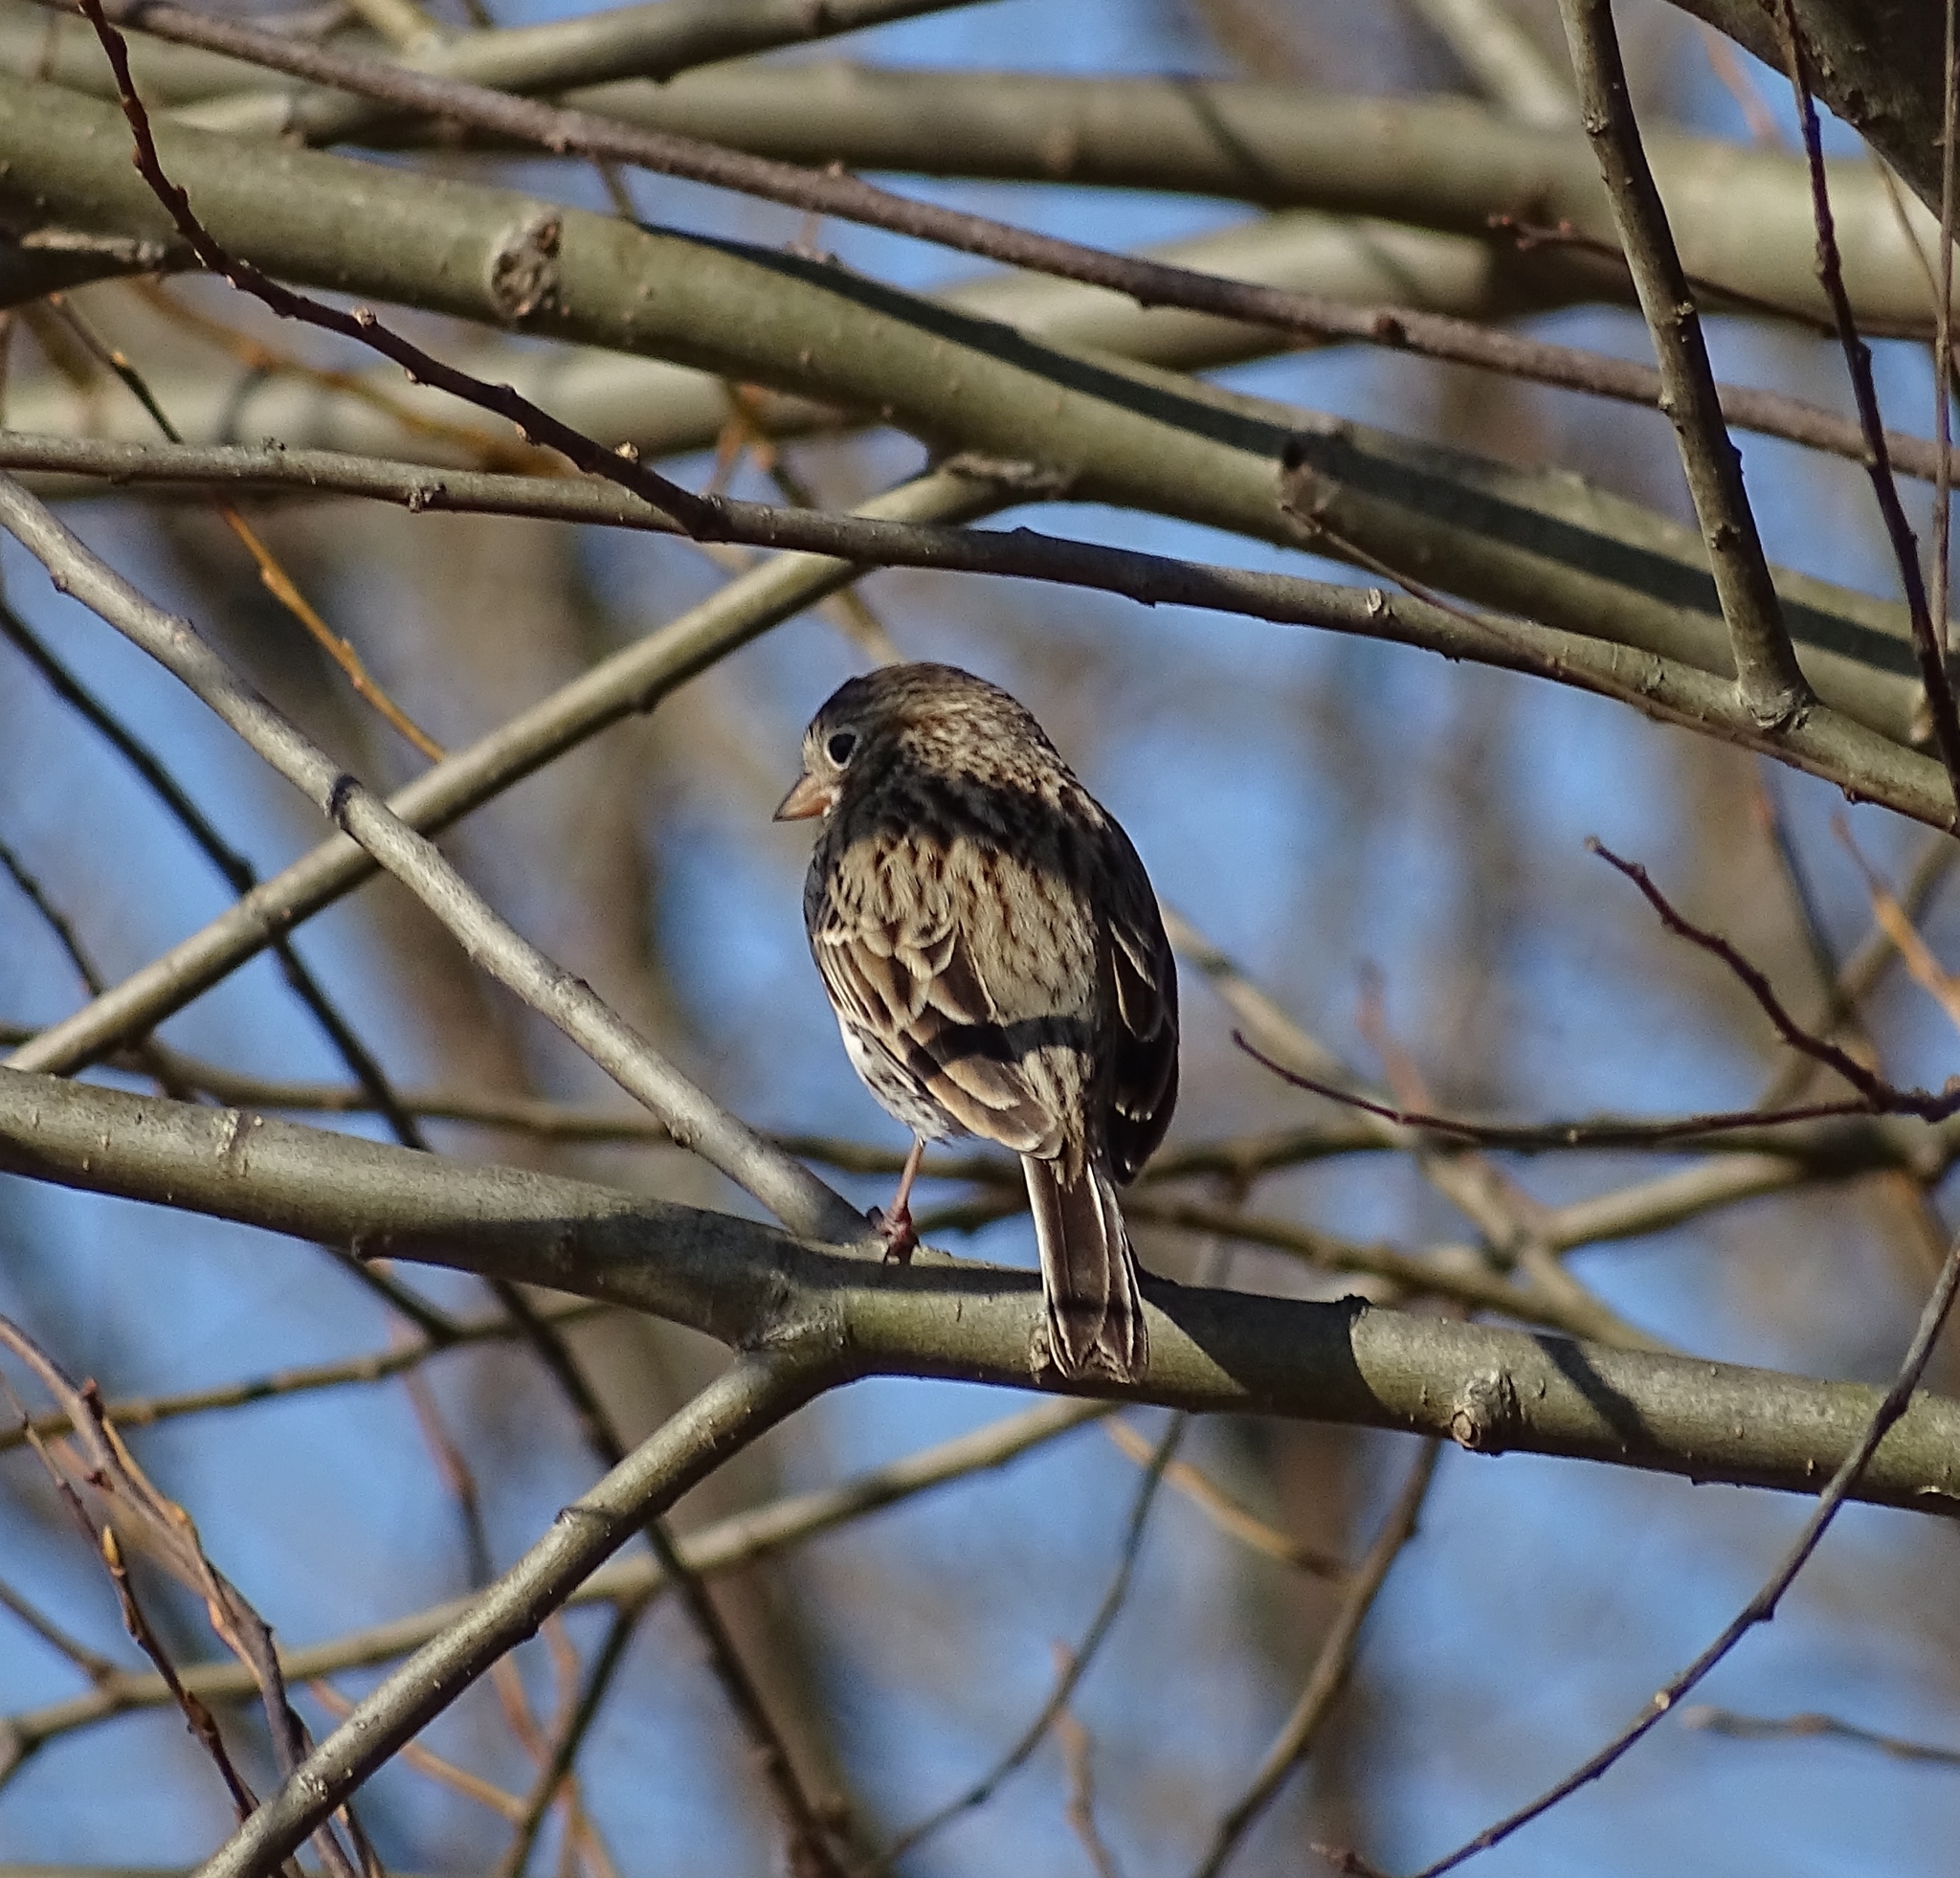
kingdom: Animalia
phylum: Chordata
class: Aves
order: Passeriformes
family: Passerellidae
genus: Pooecetes
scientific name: Pooecetes gramineus
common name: Vesper sparrow
